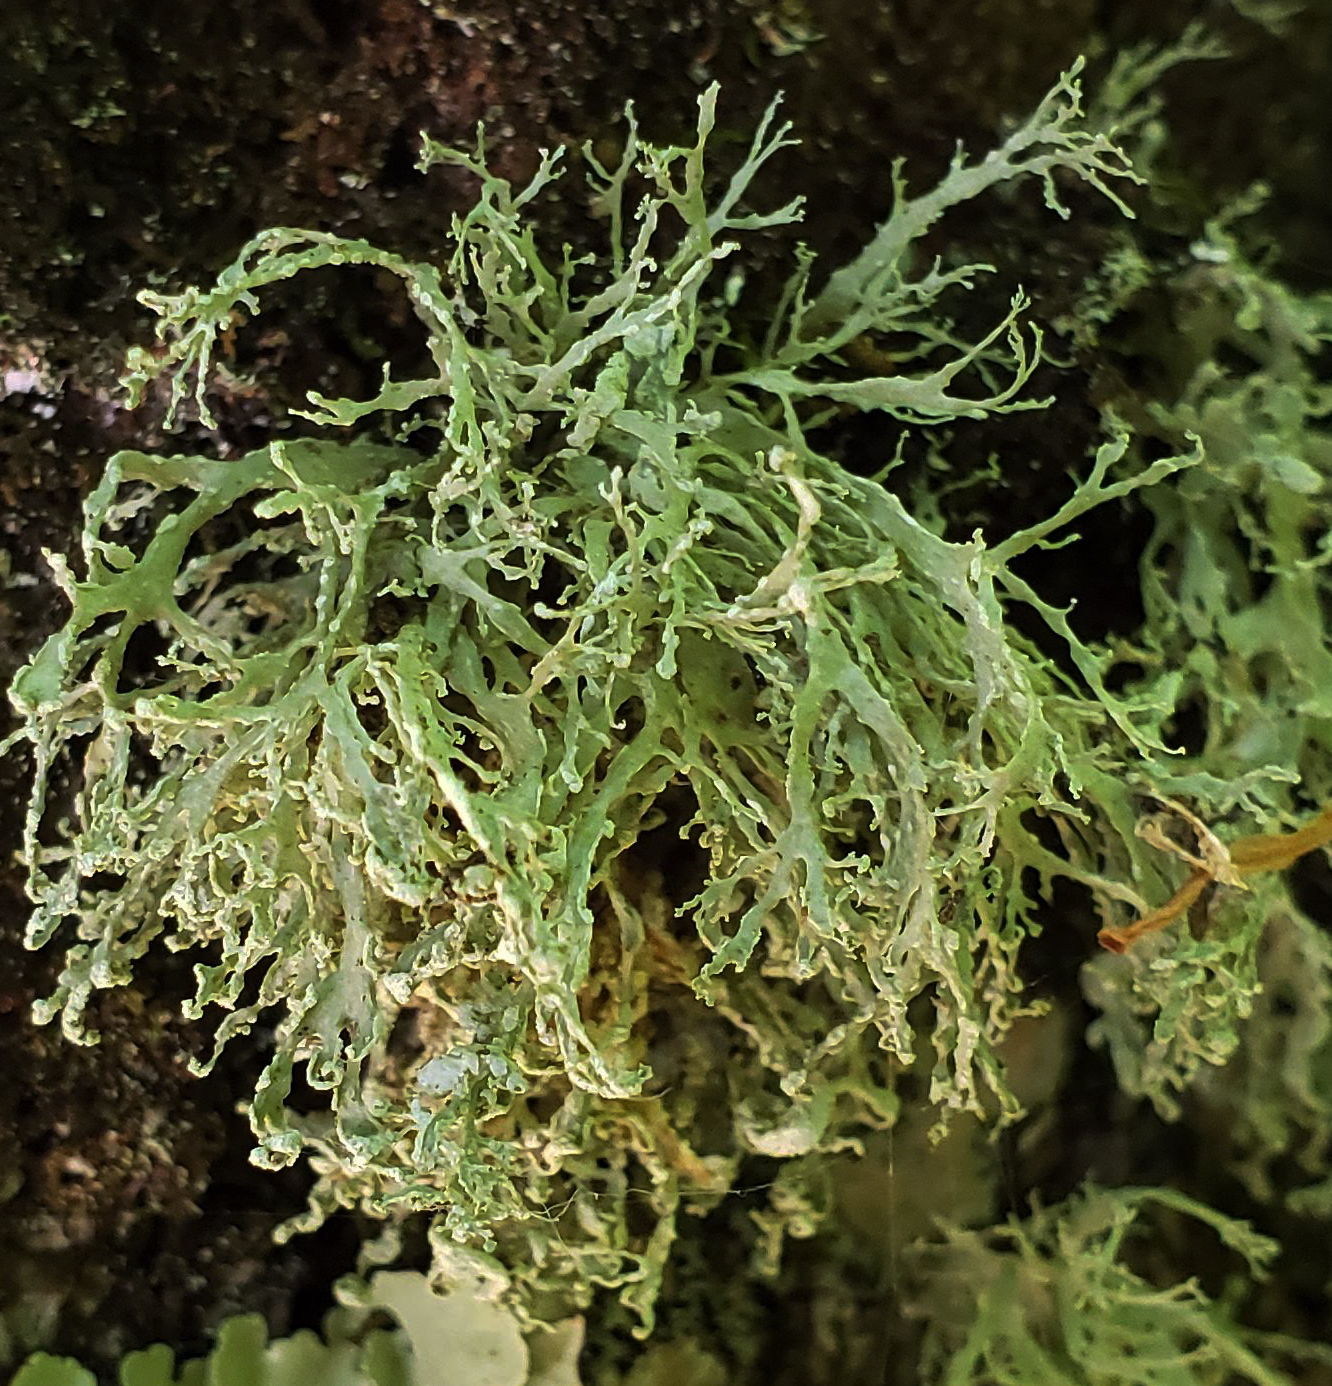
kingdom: Fungi
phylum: Ascomycota
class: Lecanoromycetes
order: Lecanorales
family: Ramalinaceae
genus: Ramalina
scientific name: Ramalina farinacea
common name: Farinose cartilage lichen
